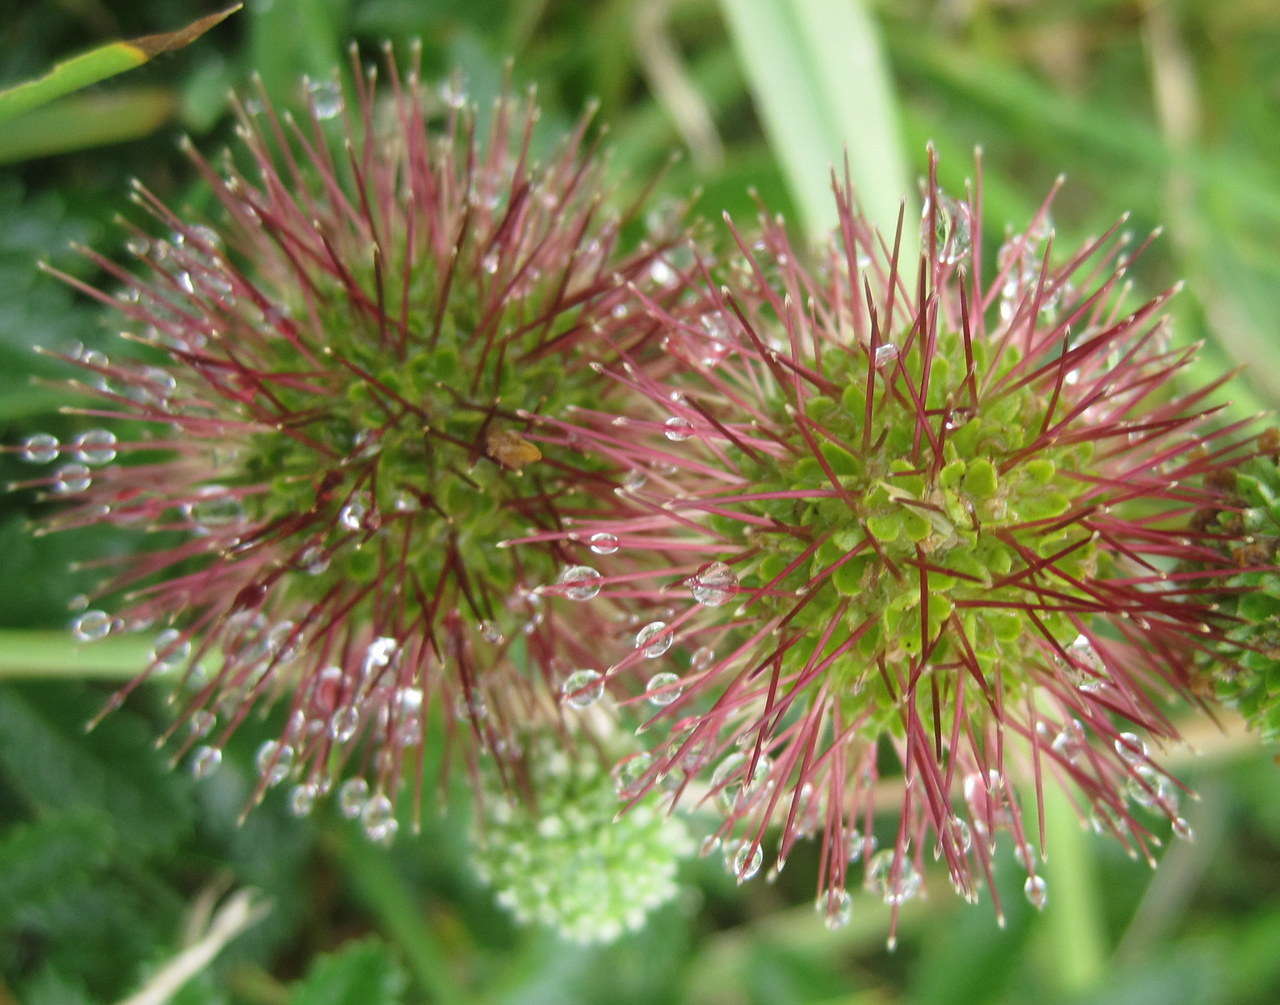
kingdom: Plantae
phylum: Tracheophyta
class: Magnoliopsida
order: Rosales
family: Rosaceae
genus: Acaena
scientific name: Acaena novae-zelandiae
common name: Pirri-pirri-bur
